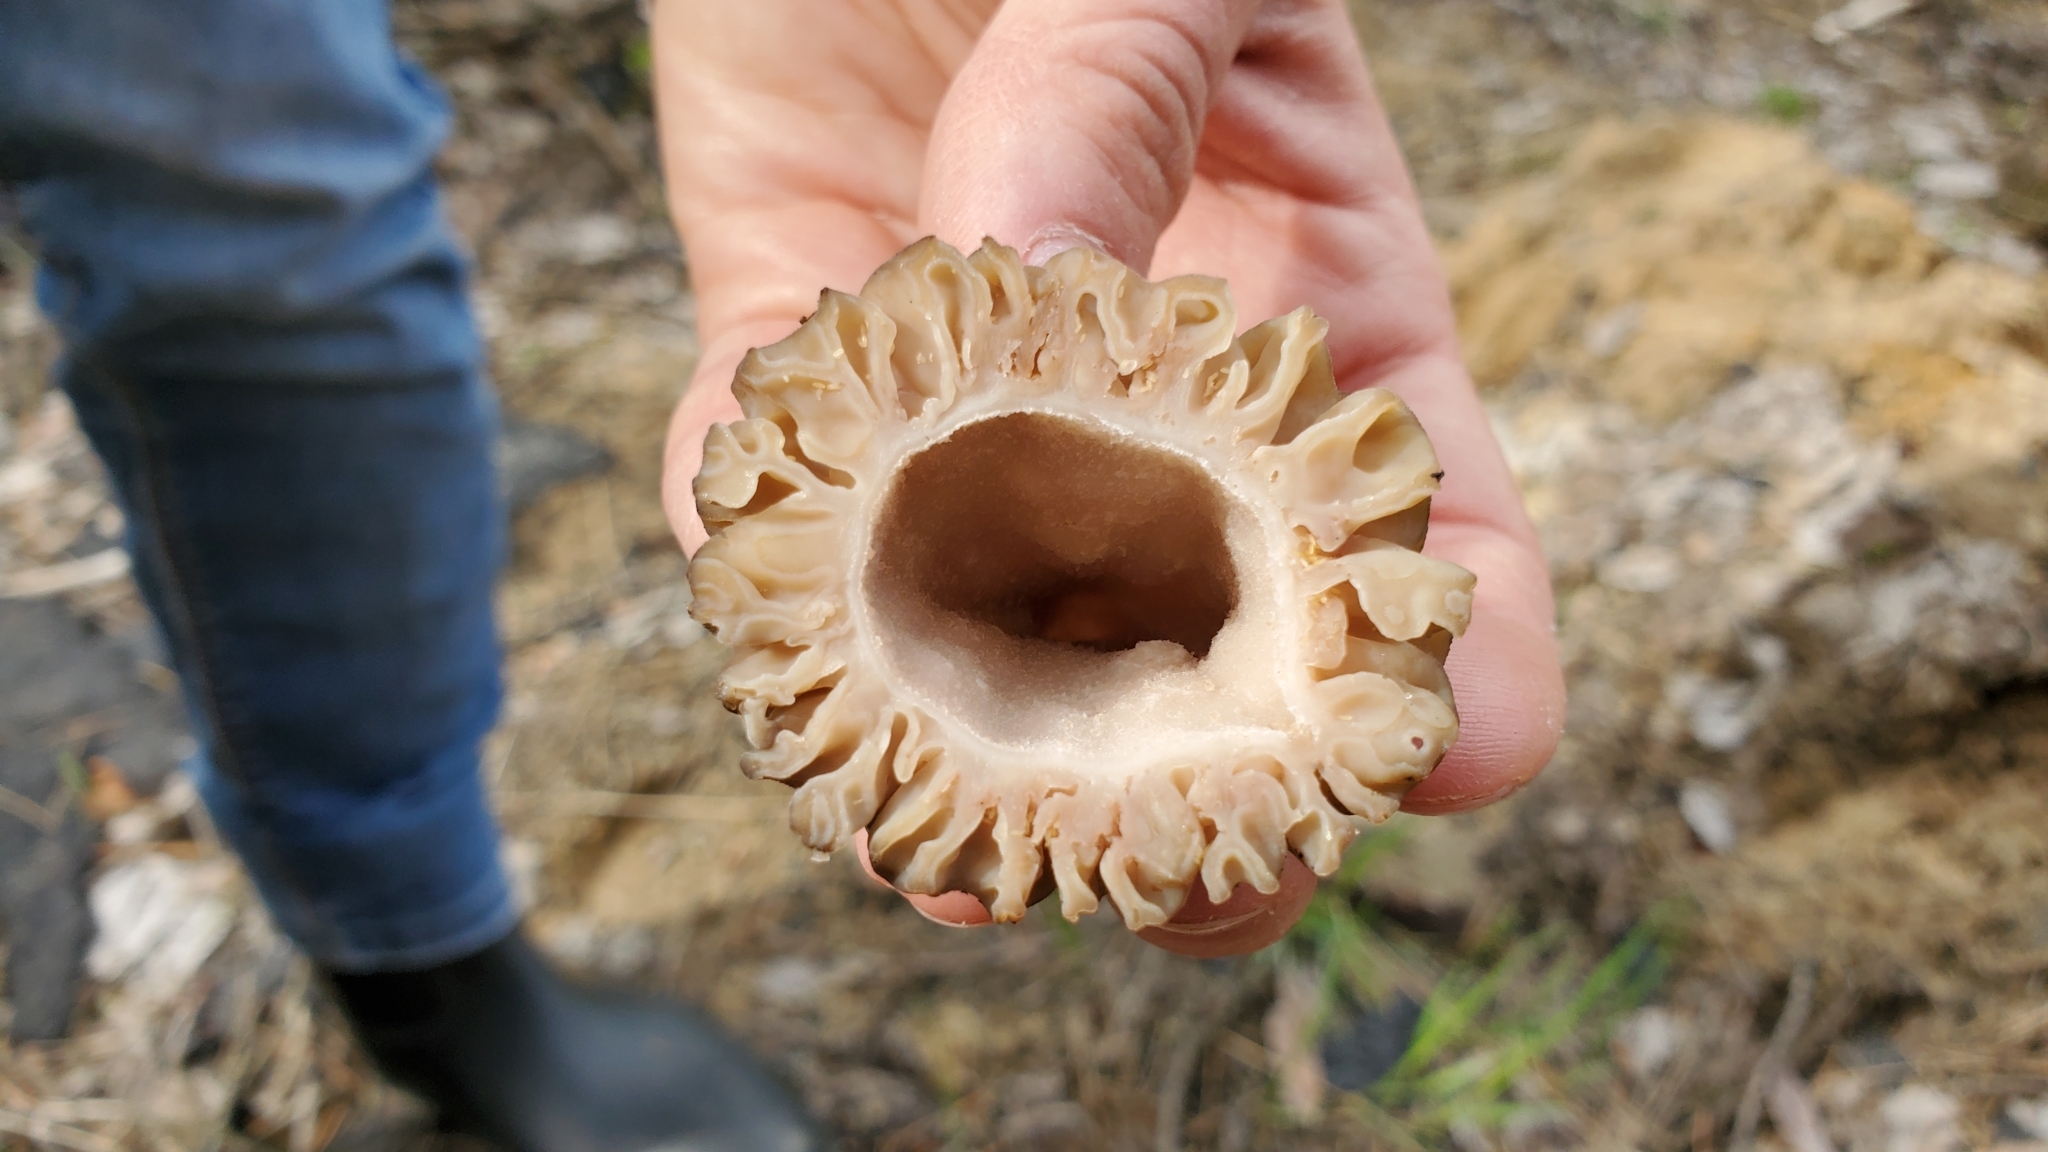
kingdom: Fungi
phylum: Ascomycota
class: Pezizomycetes
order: Pezizales
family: Morchellaceae
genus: Morchella
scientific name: Morchella
